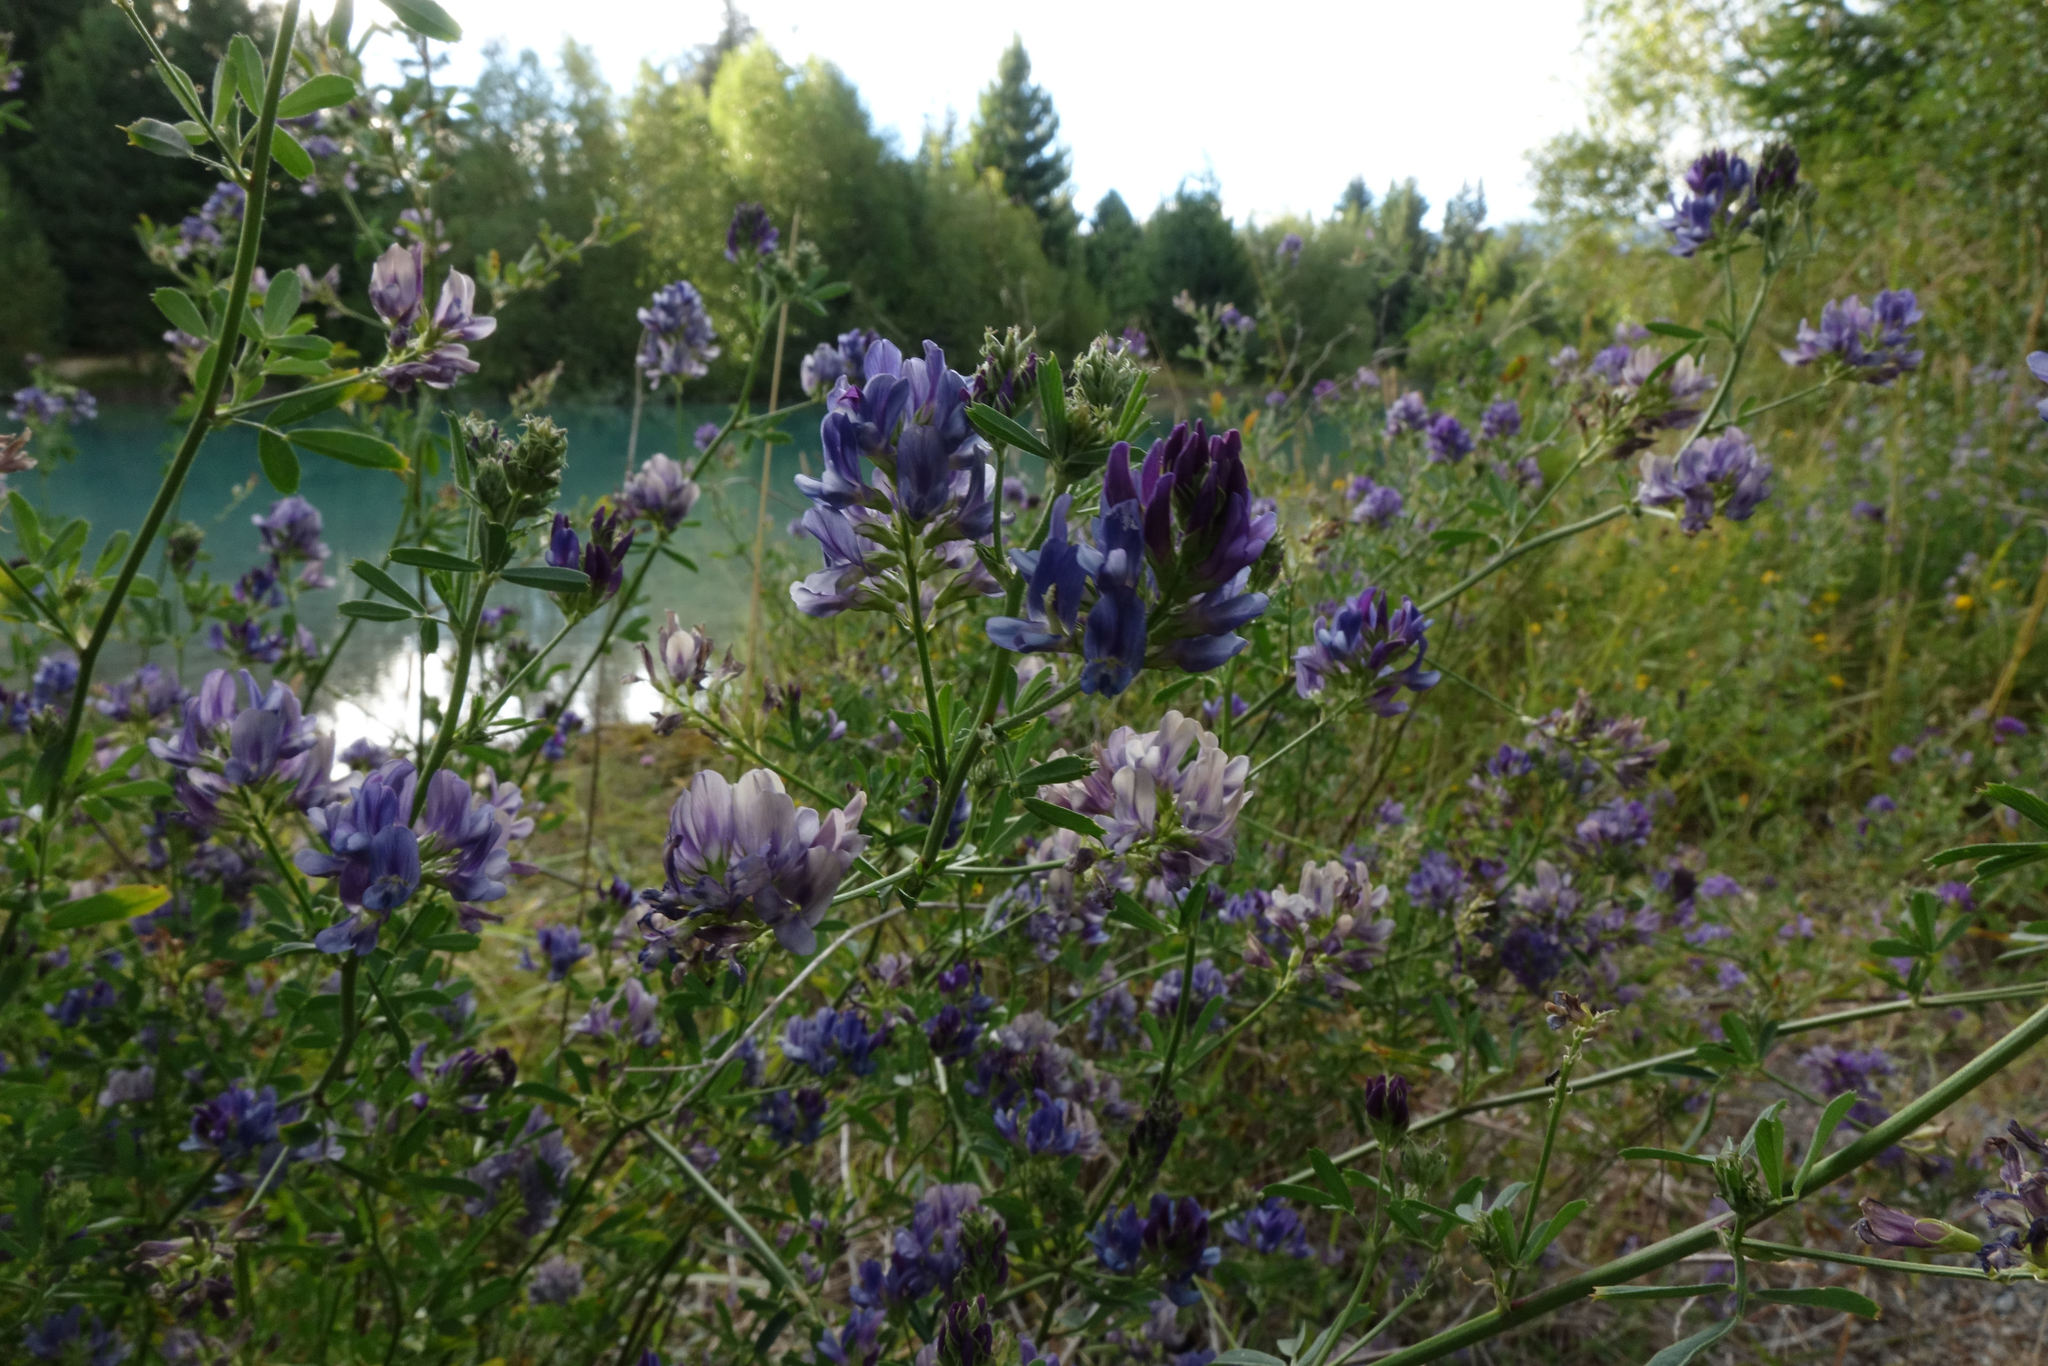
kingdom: Plantae
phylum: Tracheophyta
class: Magnoliopsida
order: Fabales
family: Fabaceae
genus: Medicago
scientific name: Medicago sativa
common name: Alfalfa
